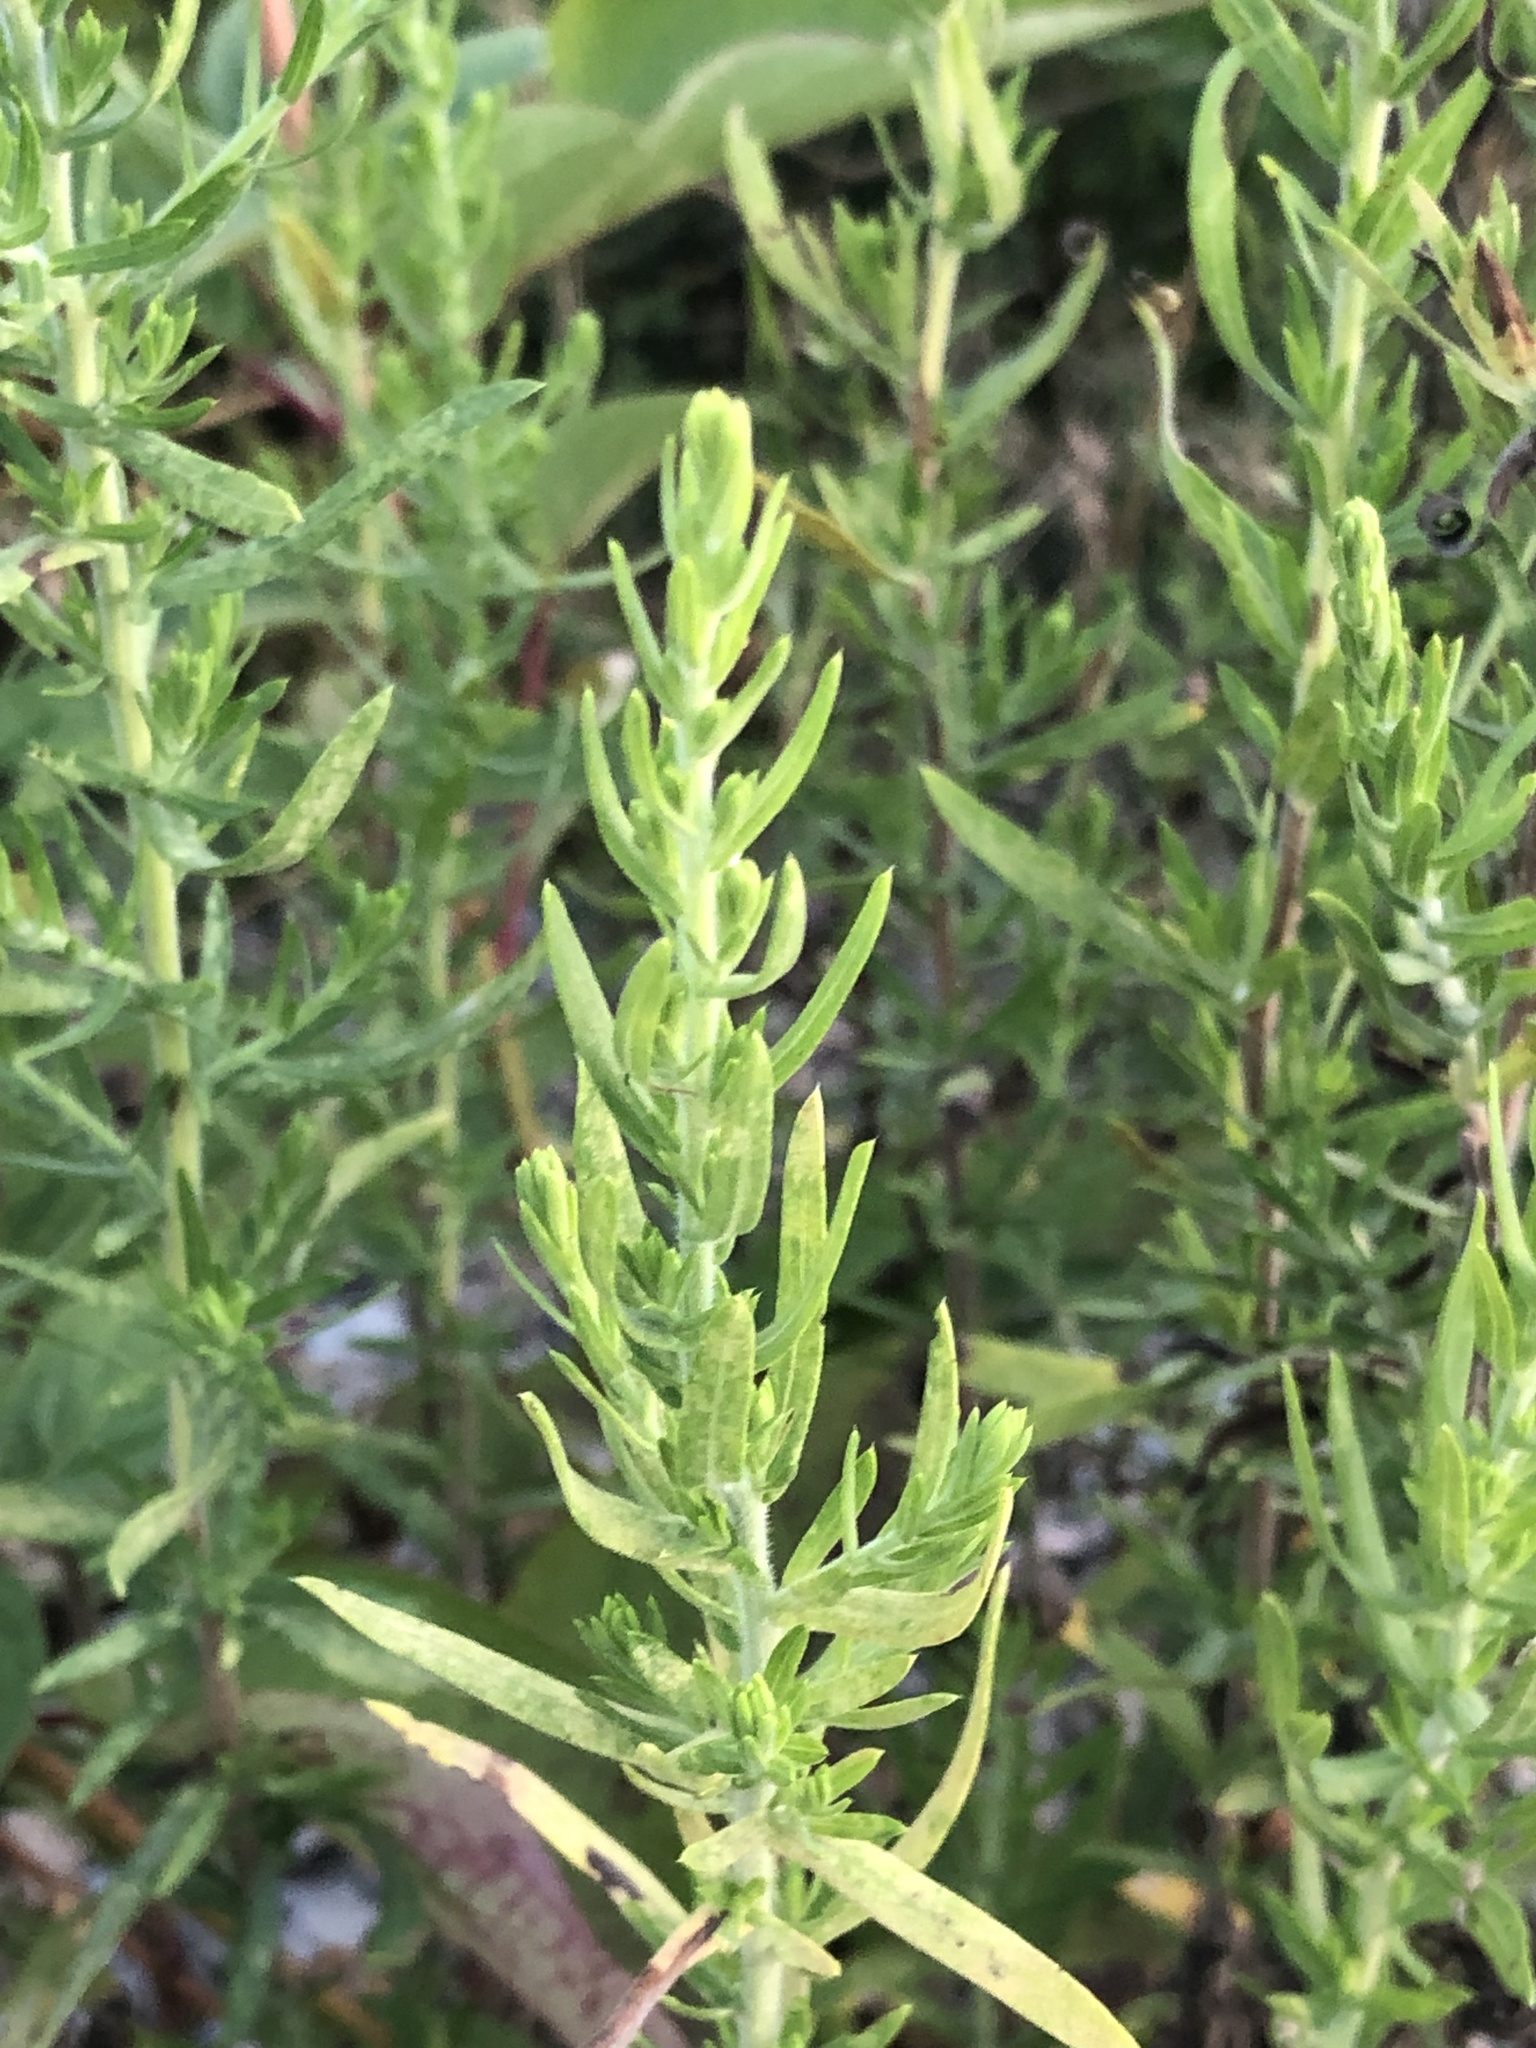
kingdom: Plantae
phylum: Tracheophyta
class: Magnoliopsida
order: Asterales
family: Asteraceae
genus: Symphyotrichum
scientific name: Symphyotrichum ericoides
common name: Heath aster
